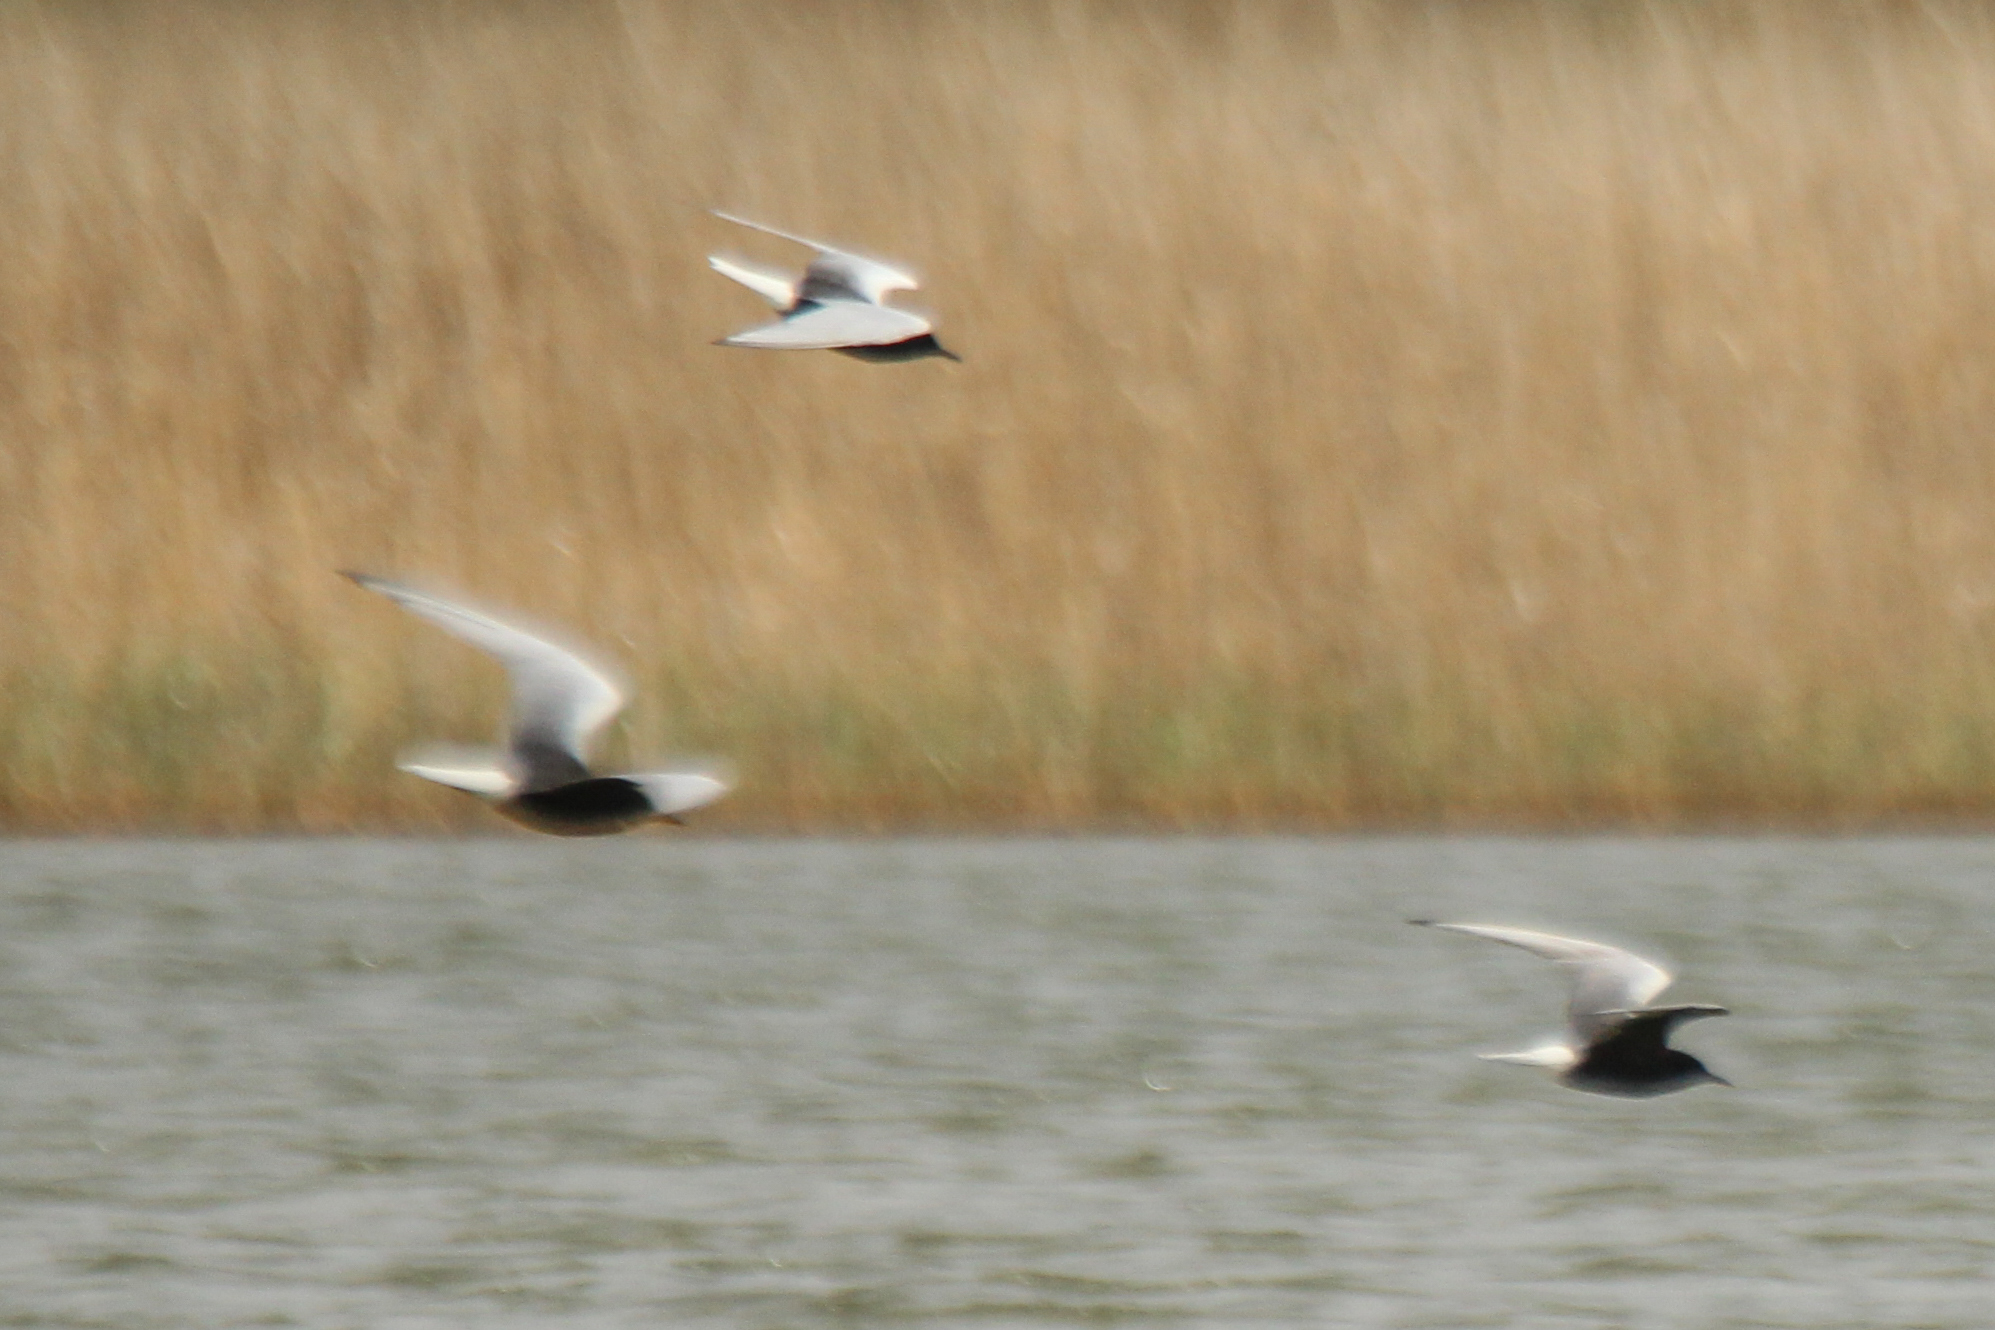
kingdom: Animalia
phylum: Chordata
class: Aves
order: Charadriiformes
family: Laridae
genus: Chlidonias
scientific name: Chlidonias leucopterus
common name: White-winged tern
